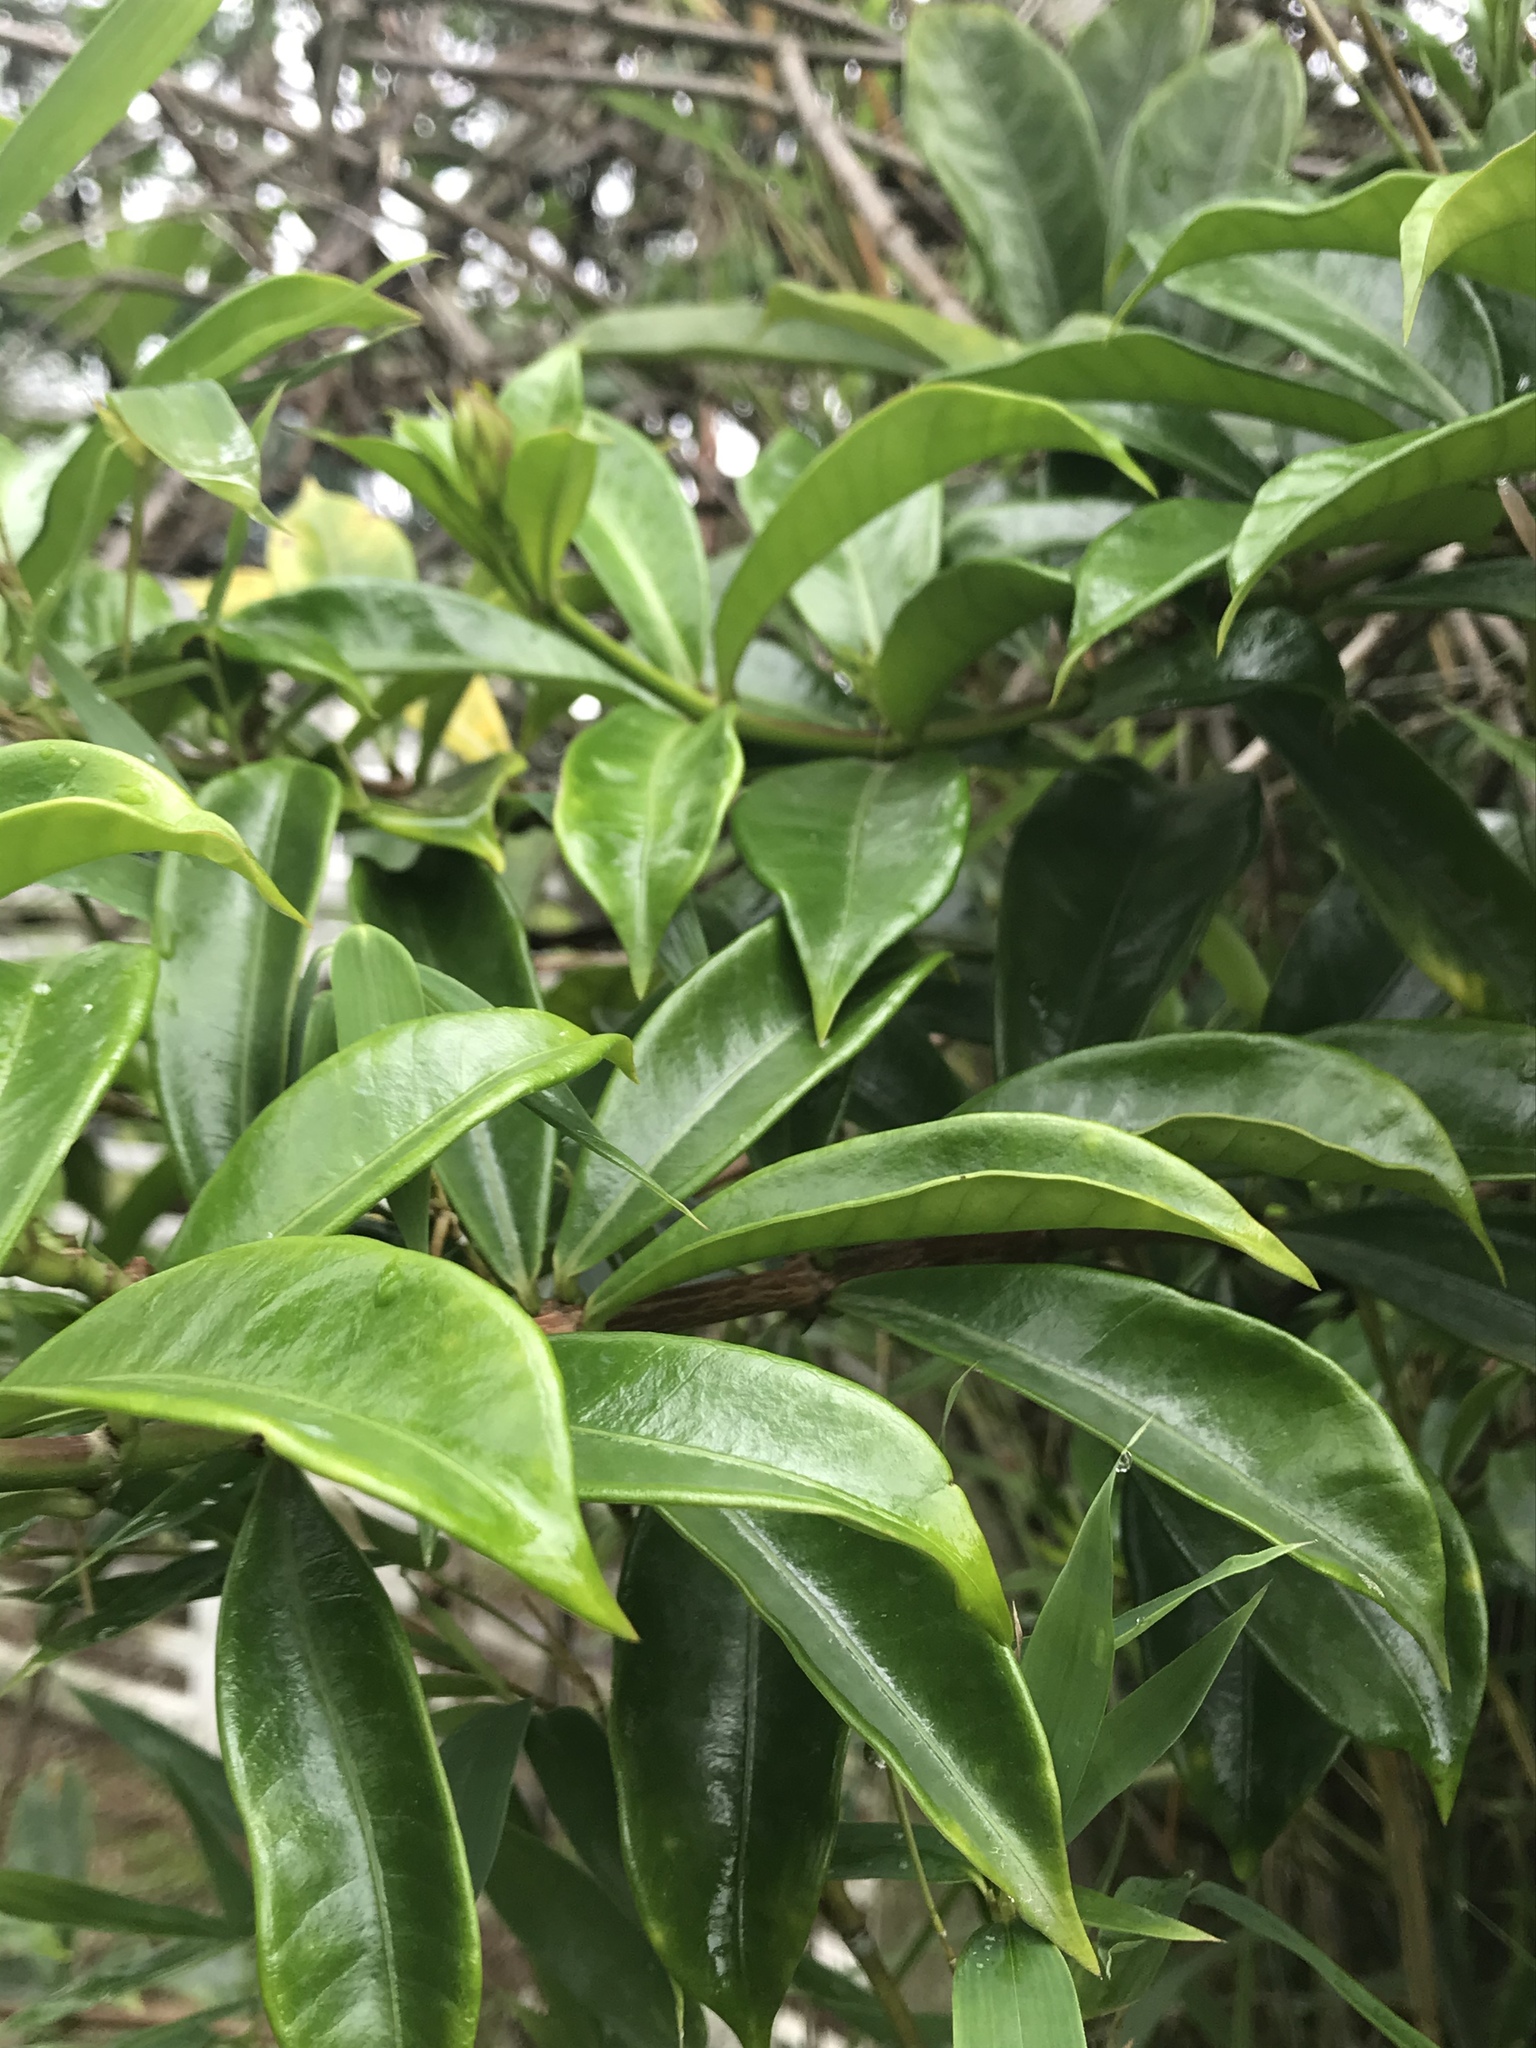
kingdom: Plantae
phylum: Tracheophyta
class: Magnoliopsida
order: Gentianales
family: Apocynaceae
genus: Allamanda
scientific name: Allamanda cathartica
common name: Golden trumpet
